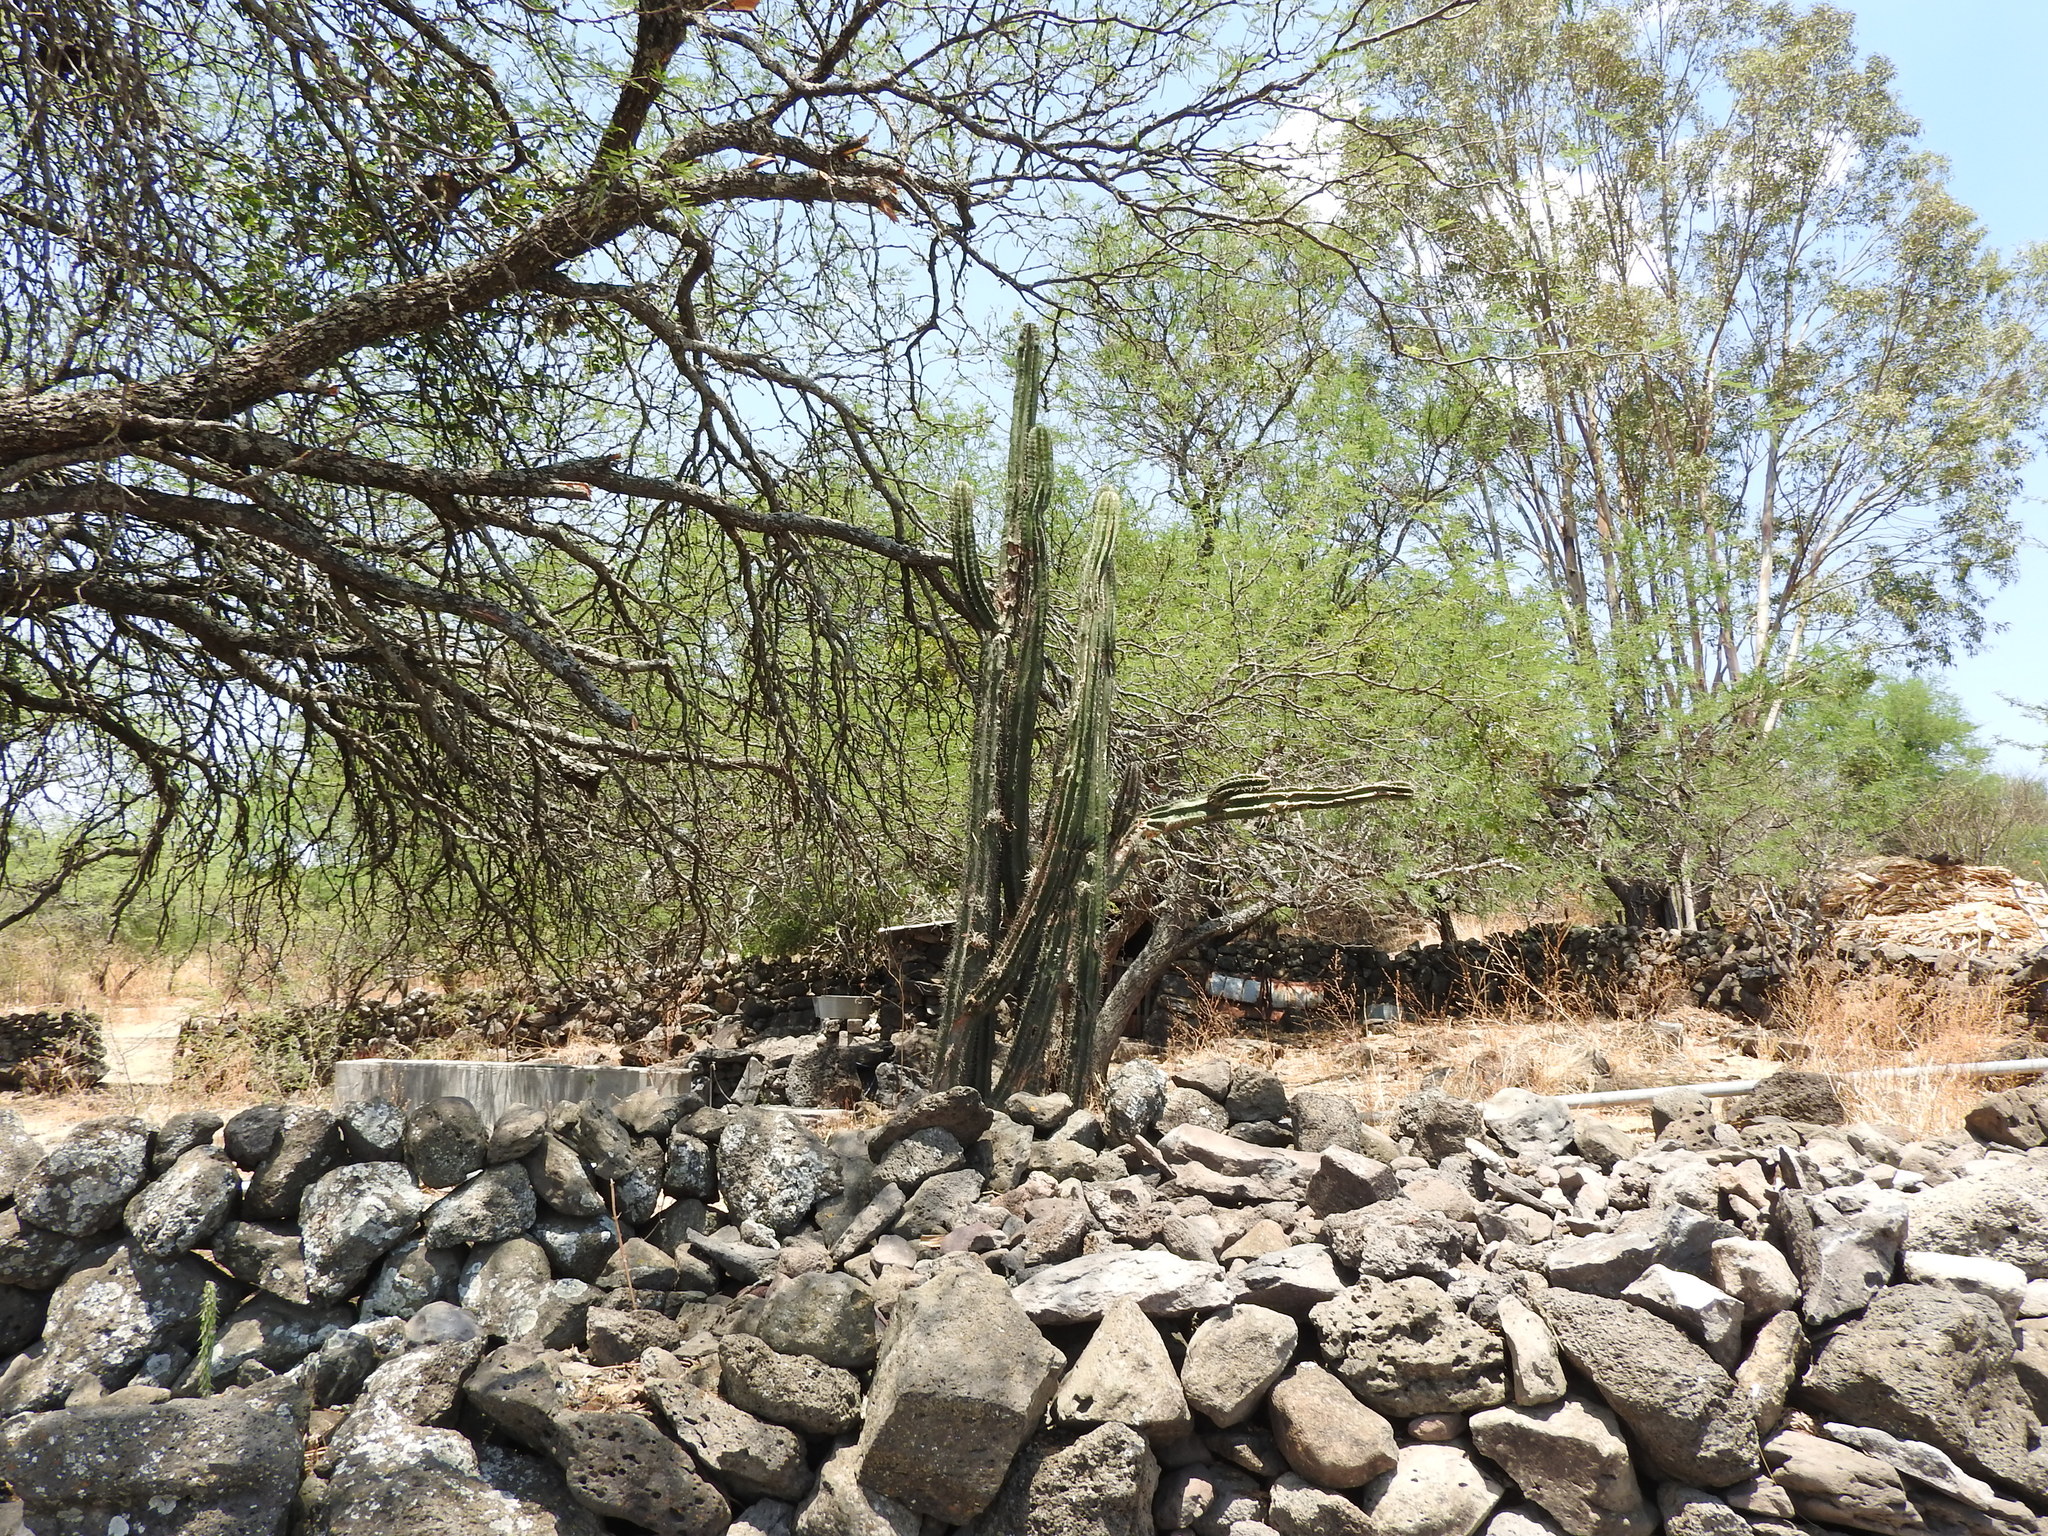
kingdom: Plantae
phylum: Tracheophyta
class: Magnoliopsida
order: Caryophyllales
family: Cactaceae
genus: Stenocereus
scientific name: Stenocereus queretaroensis
